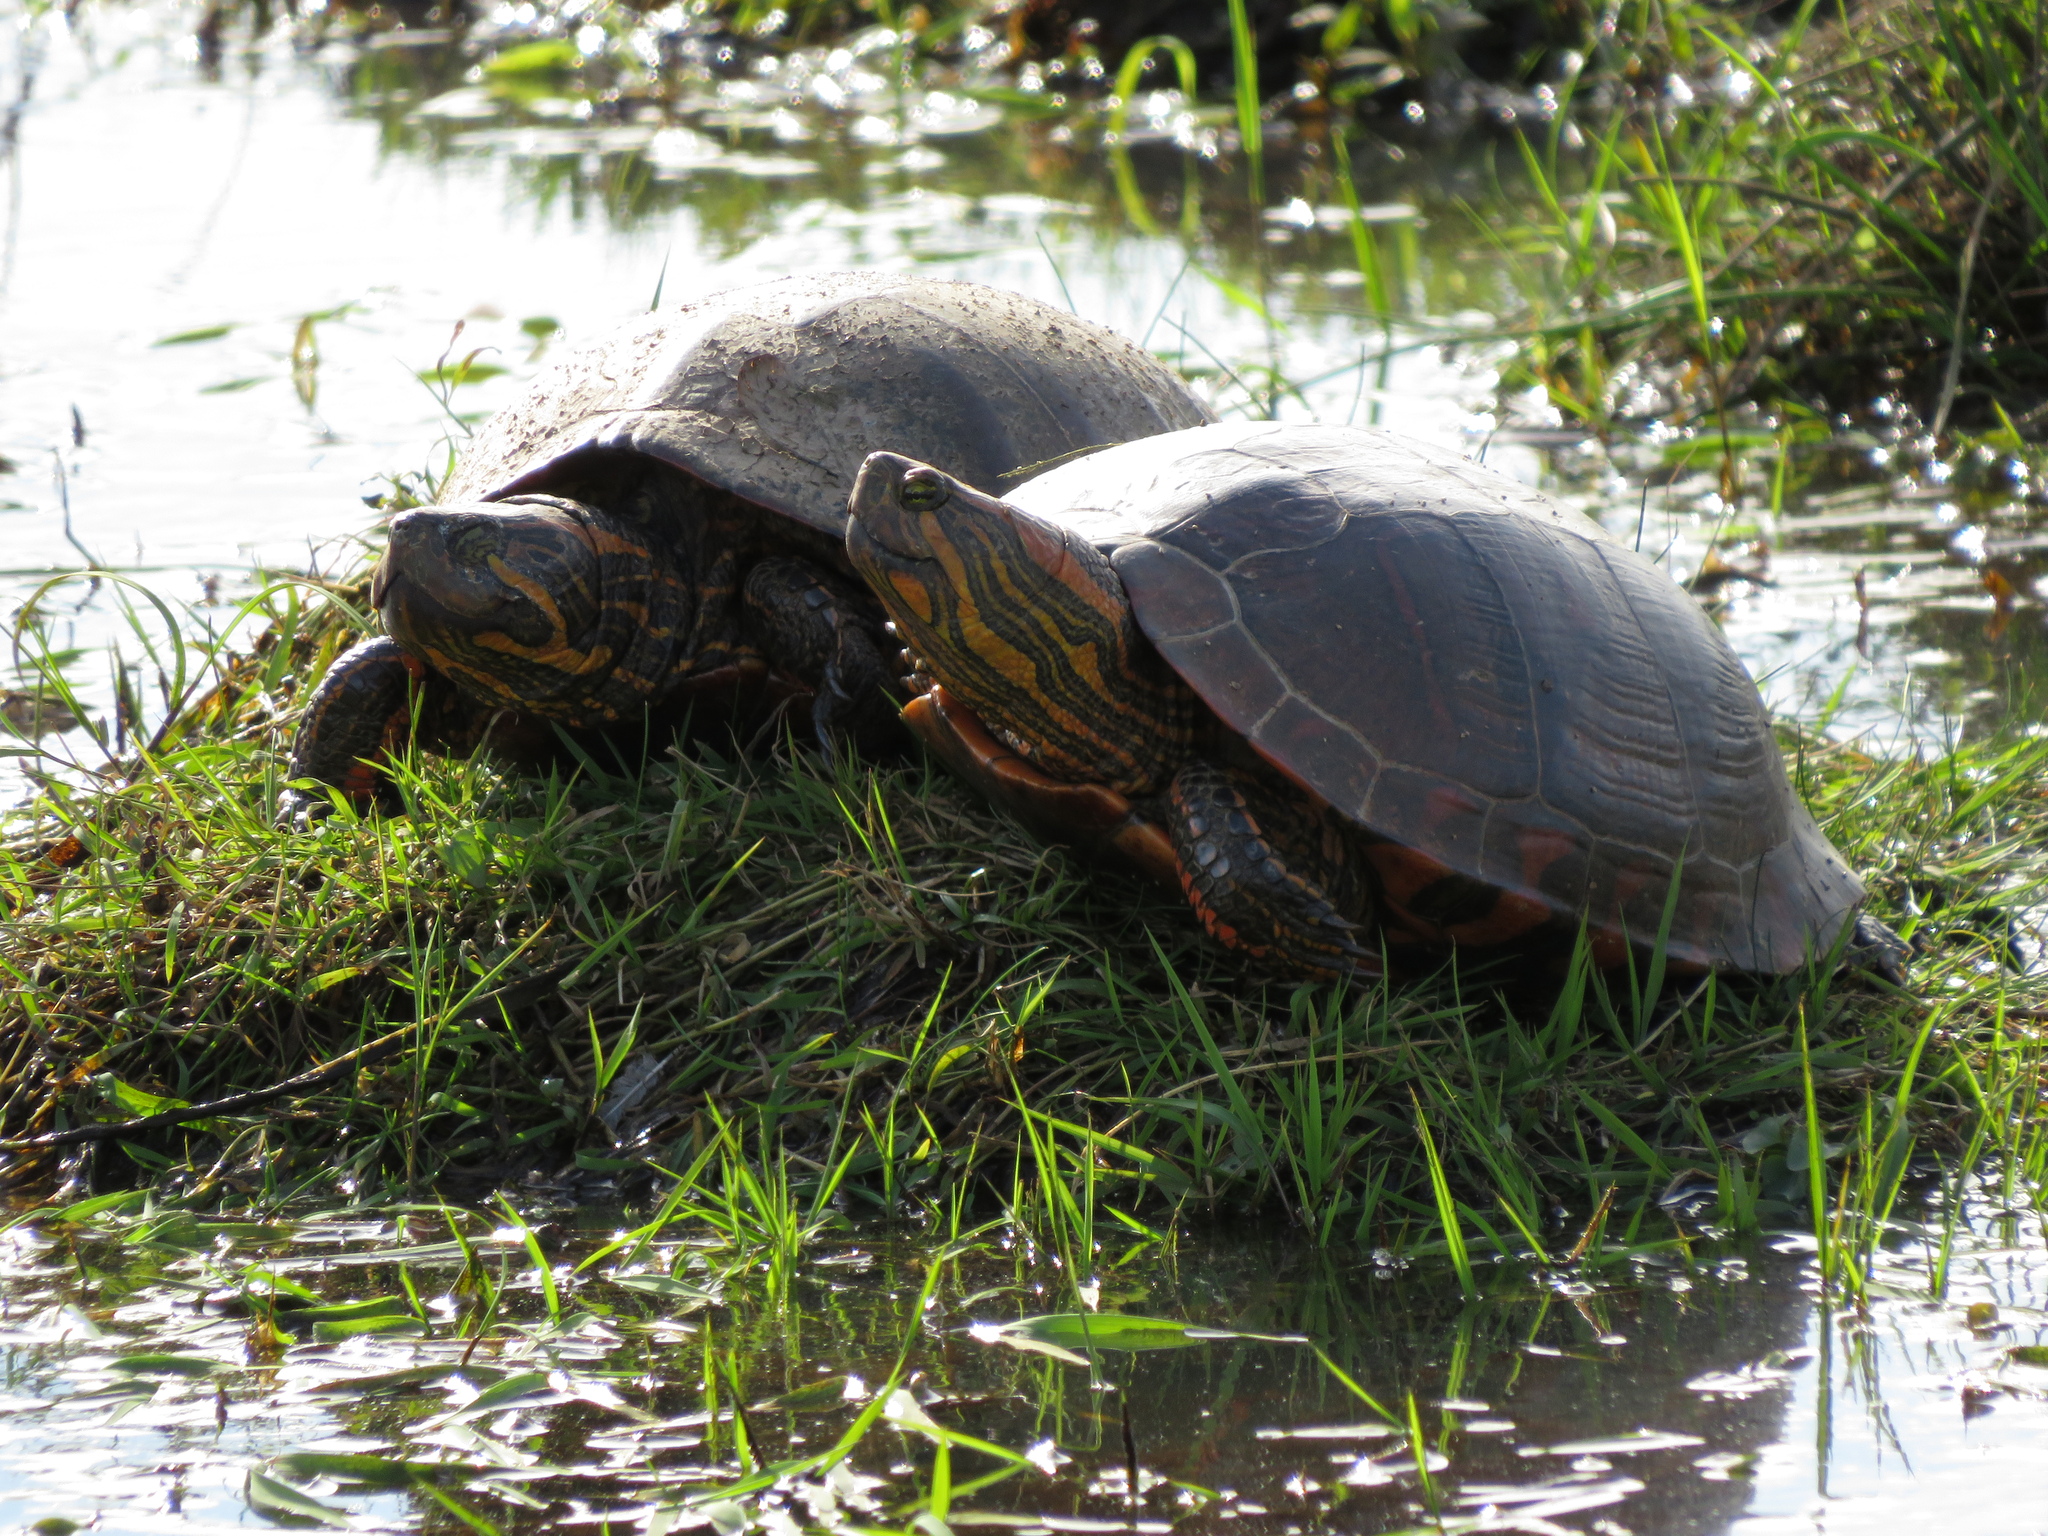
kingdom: Animalia
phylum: Chordata
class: Testudines
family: Emydidae
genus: Trachemys
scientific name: Trachemys dorbigni
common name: Black-bellied slider
